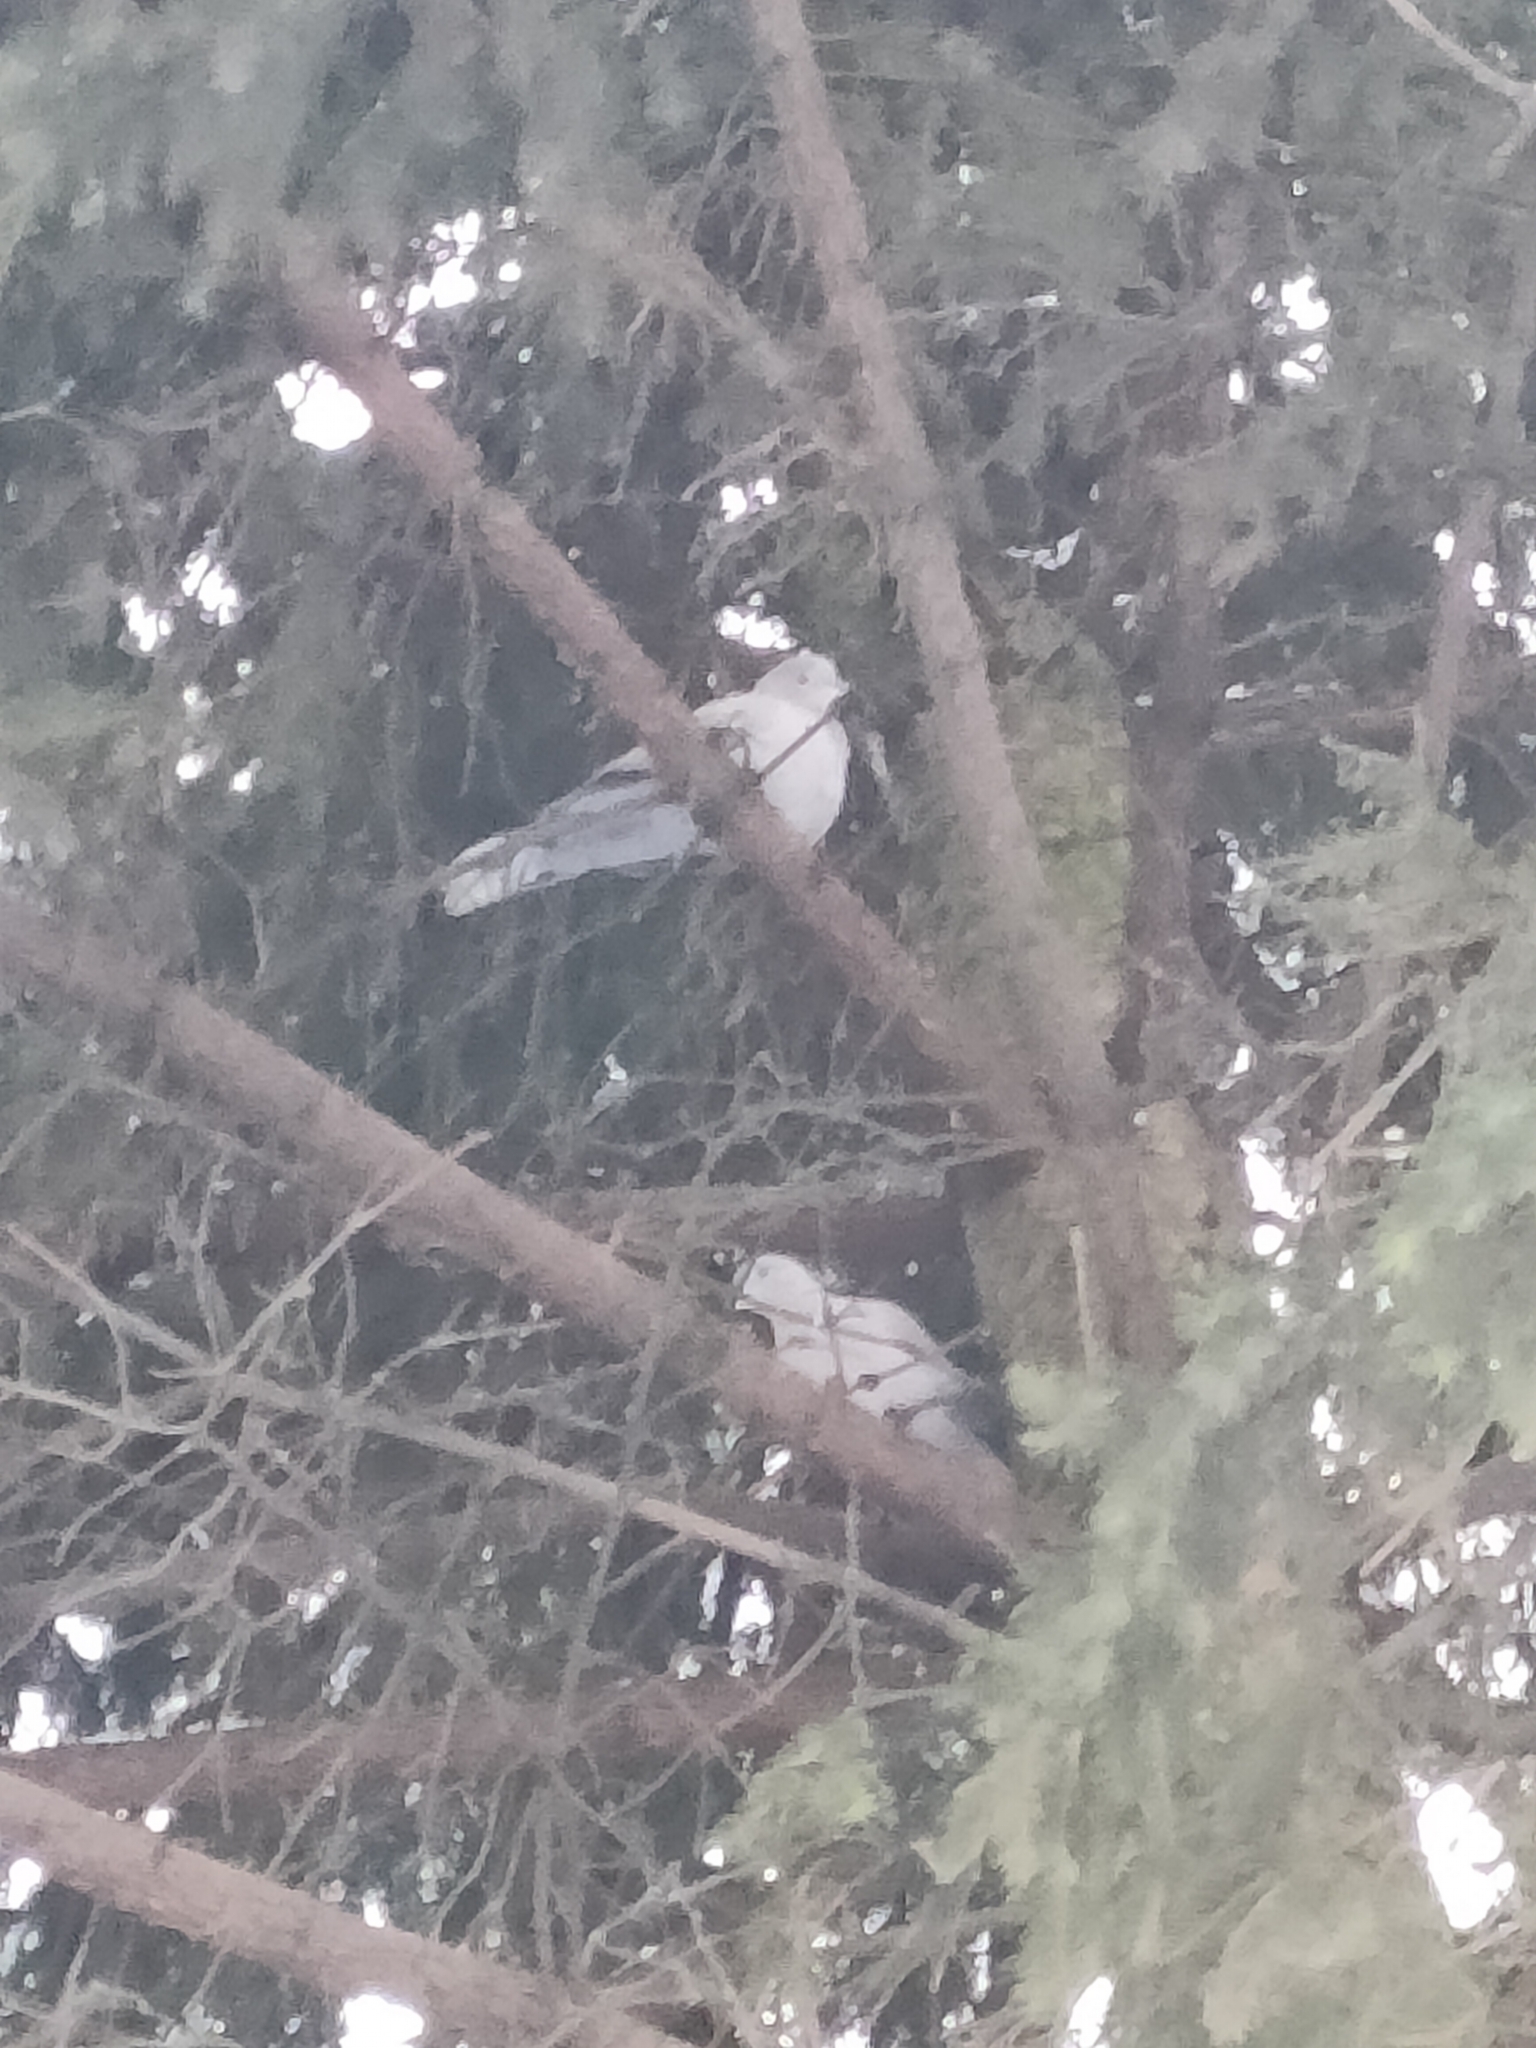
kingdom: Animalia
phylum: Chordata
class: Aves
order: Columbiformes
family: Columbidae
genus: Streptopelia
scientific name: Streptopelia decaocto
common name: Eurasian collared dove
